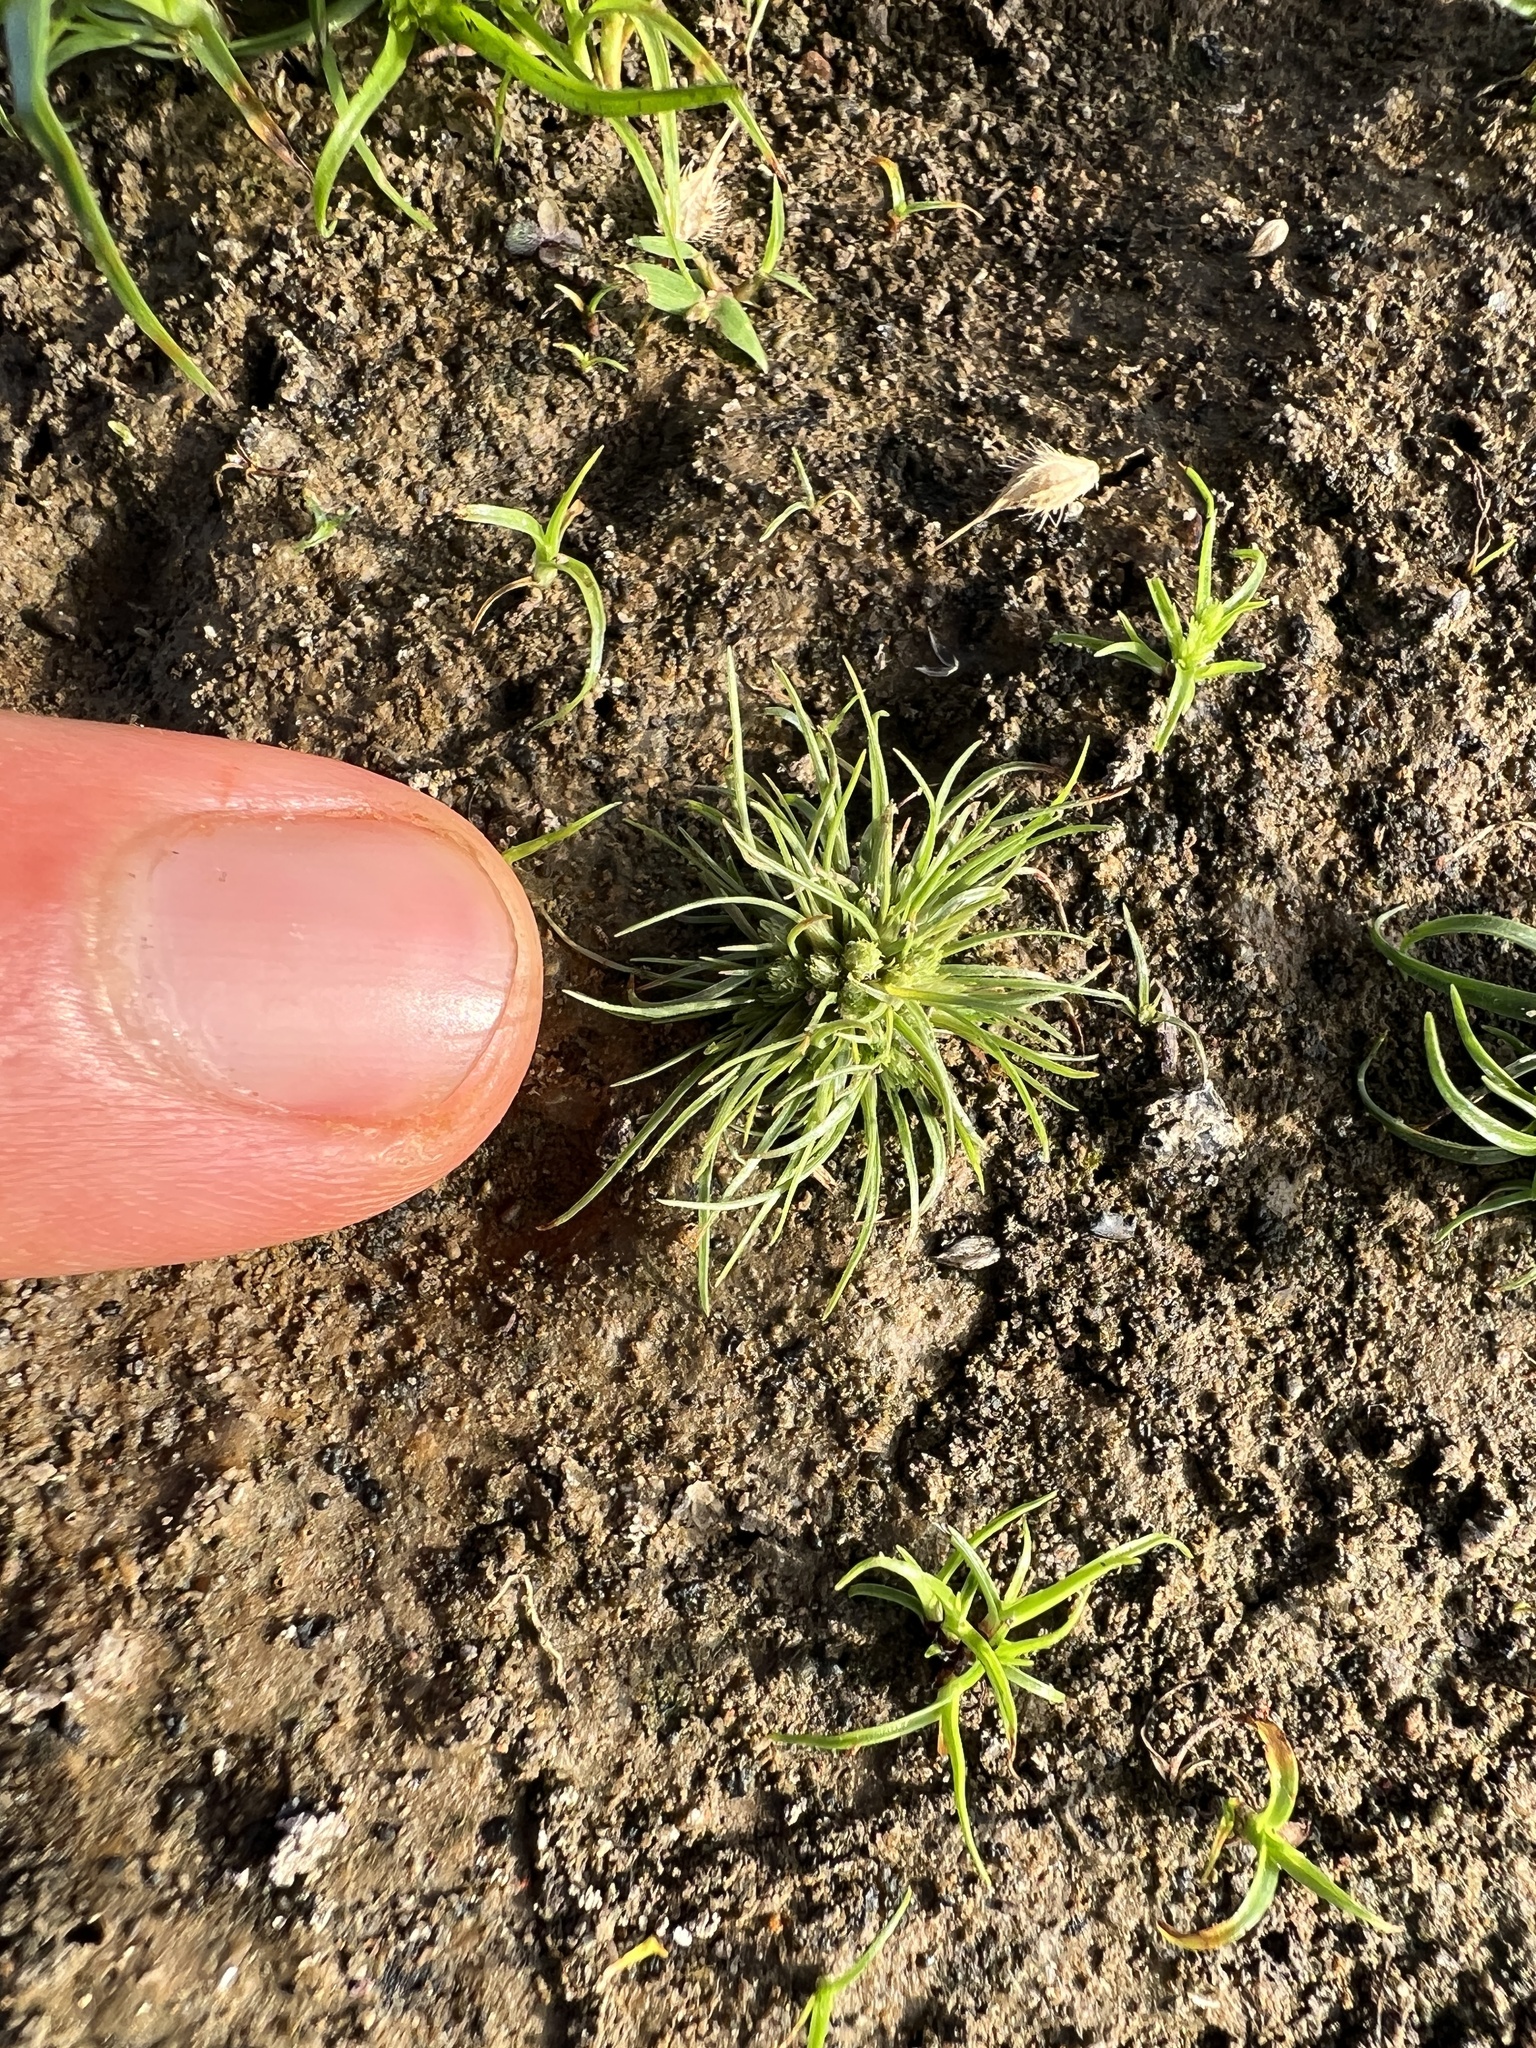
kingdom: Plantae
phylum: Tracheophyta
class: Liliopsida
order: Poales
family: Cyperaceae
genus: Fimbristylis
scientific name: Fimbristylis vahlii
